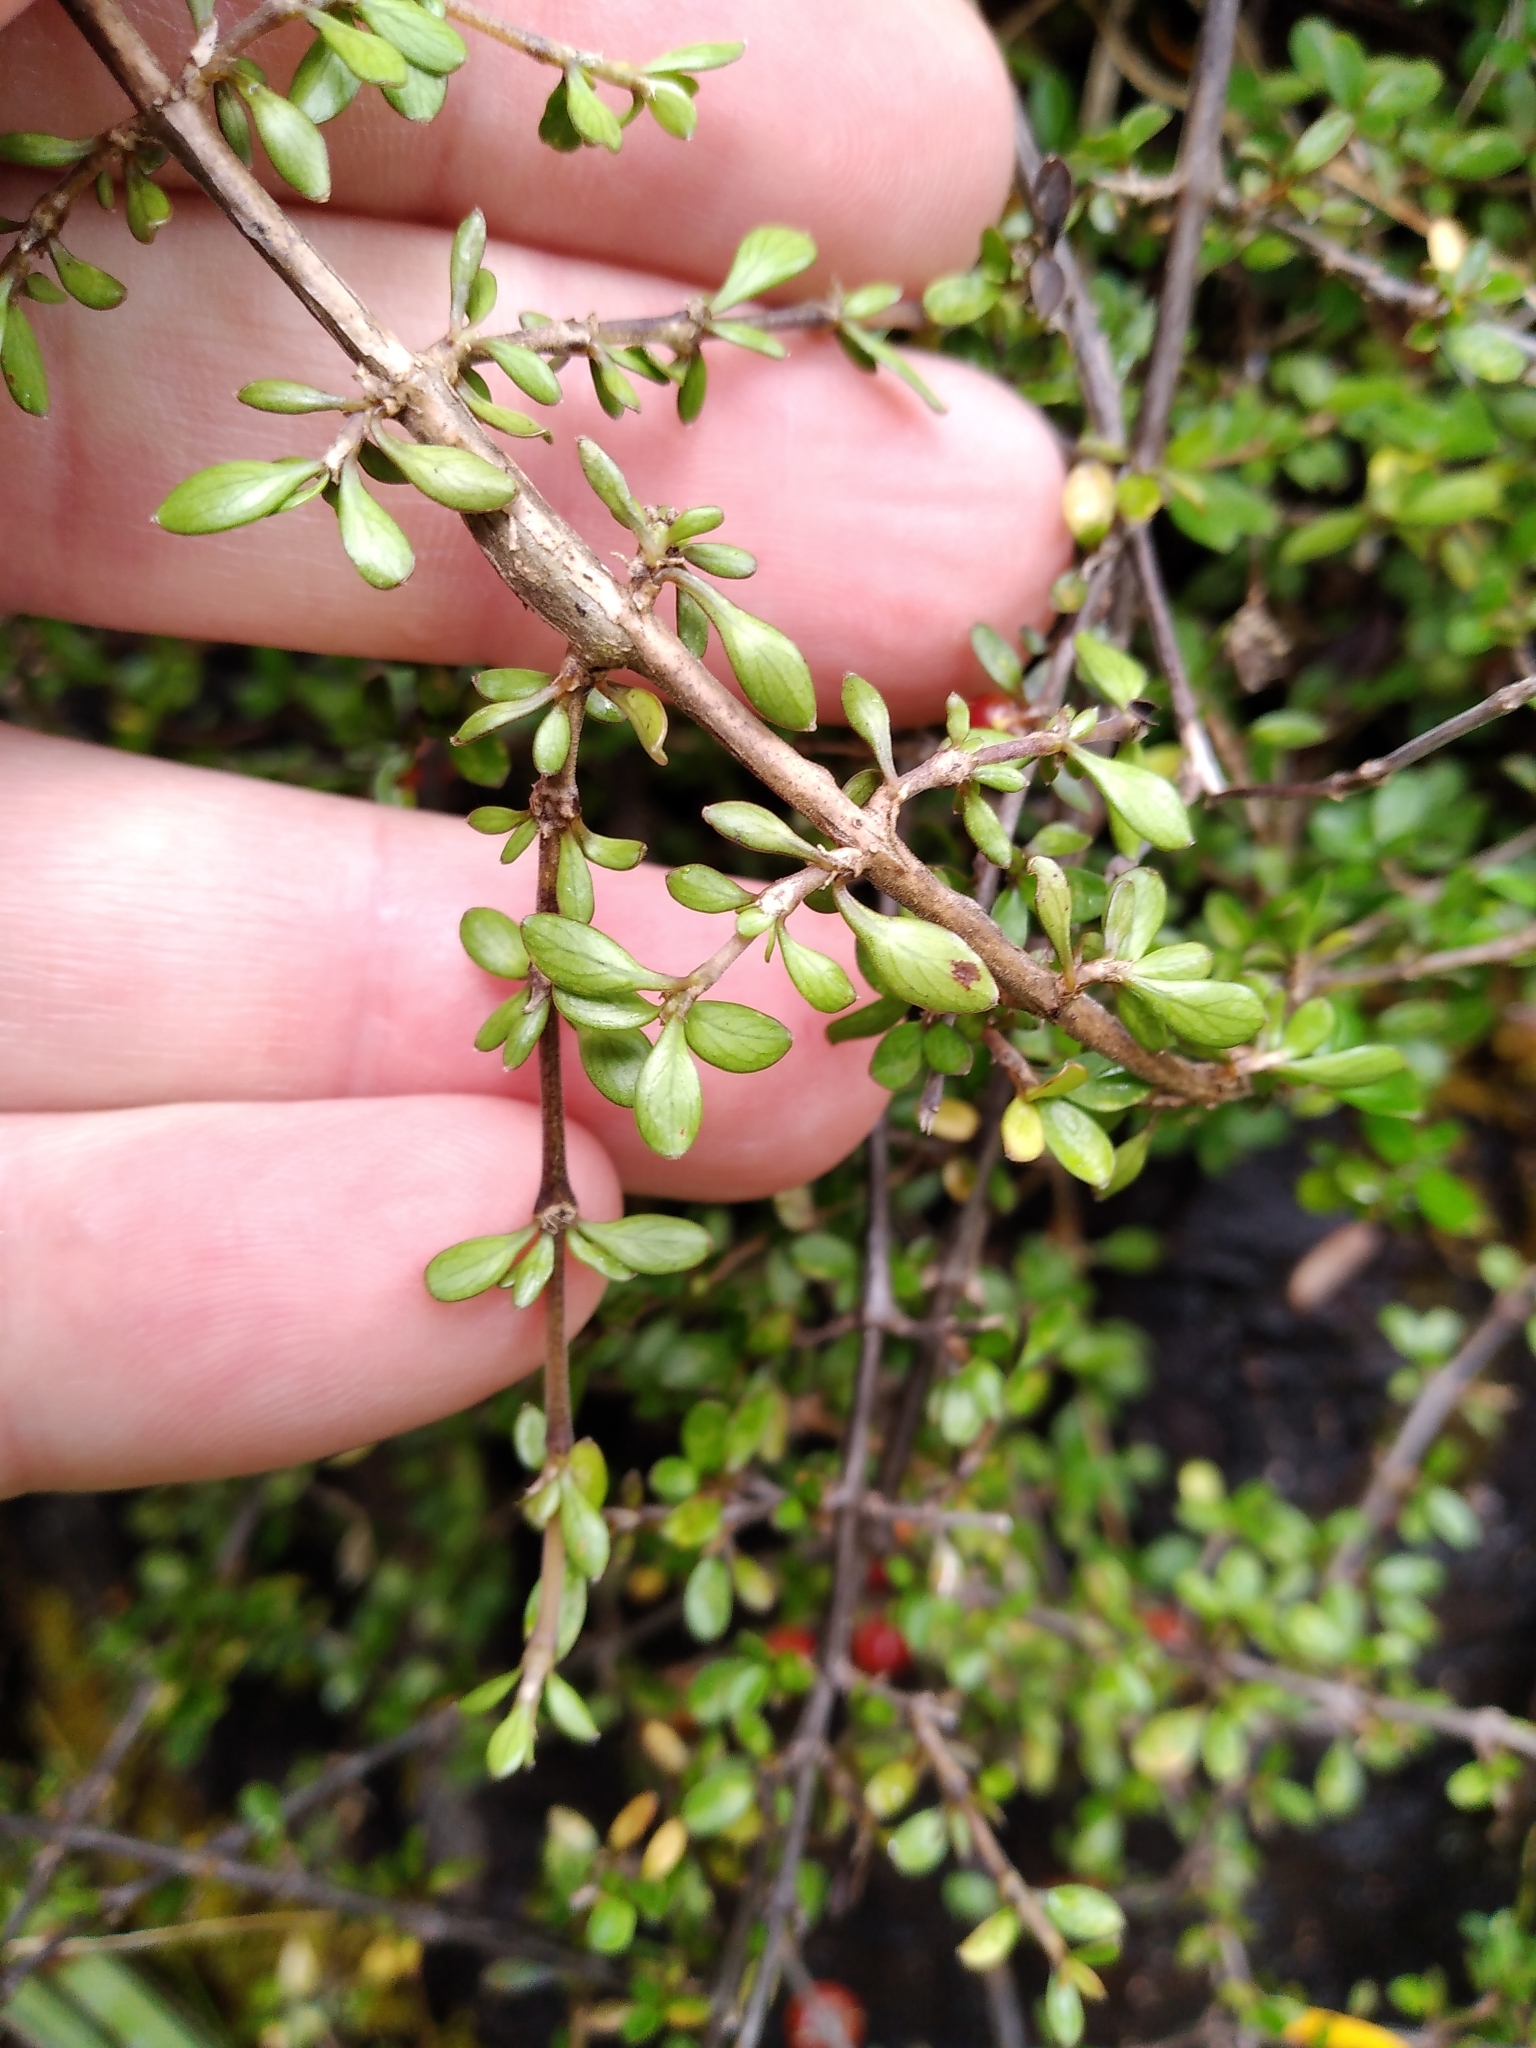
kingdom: Plantae
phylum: Tracheophyta
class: Magnoliopsida
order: Gentianales
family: Rubiaceae
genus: Coprosma
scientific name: Coprosma depressa
